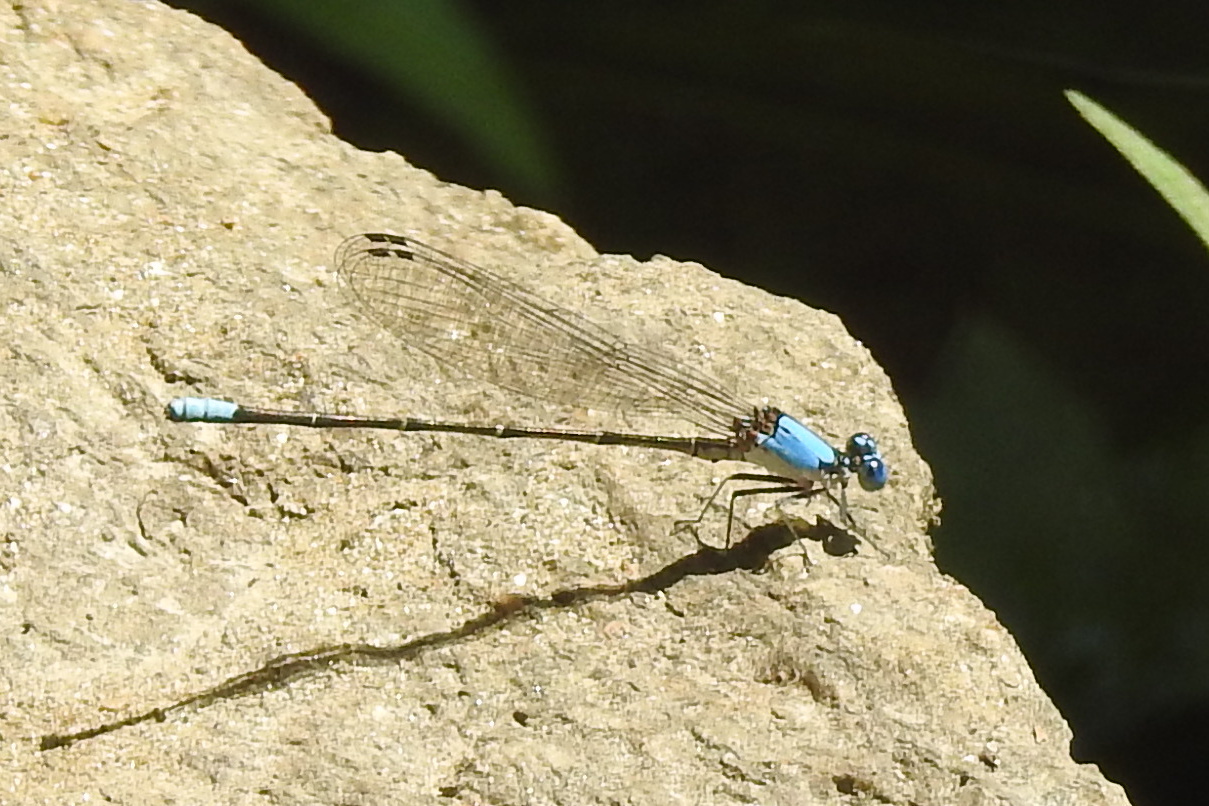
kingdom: Animalia
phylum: Arthropoda
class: Insecta
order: Odonata
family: Coenagrionidae
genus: Argia
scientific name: Argia apicalis
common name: Blue-fronted dancer
